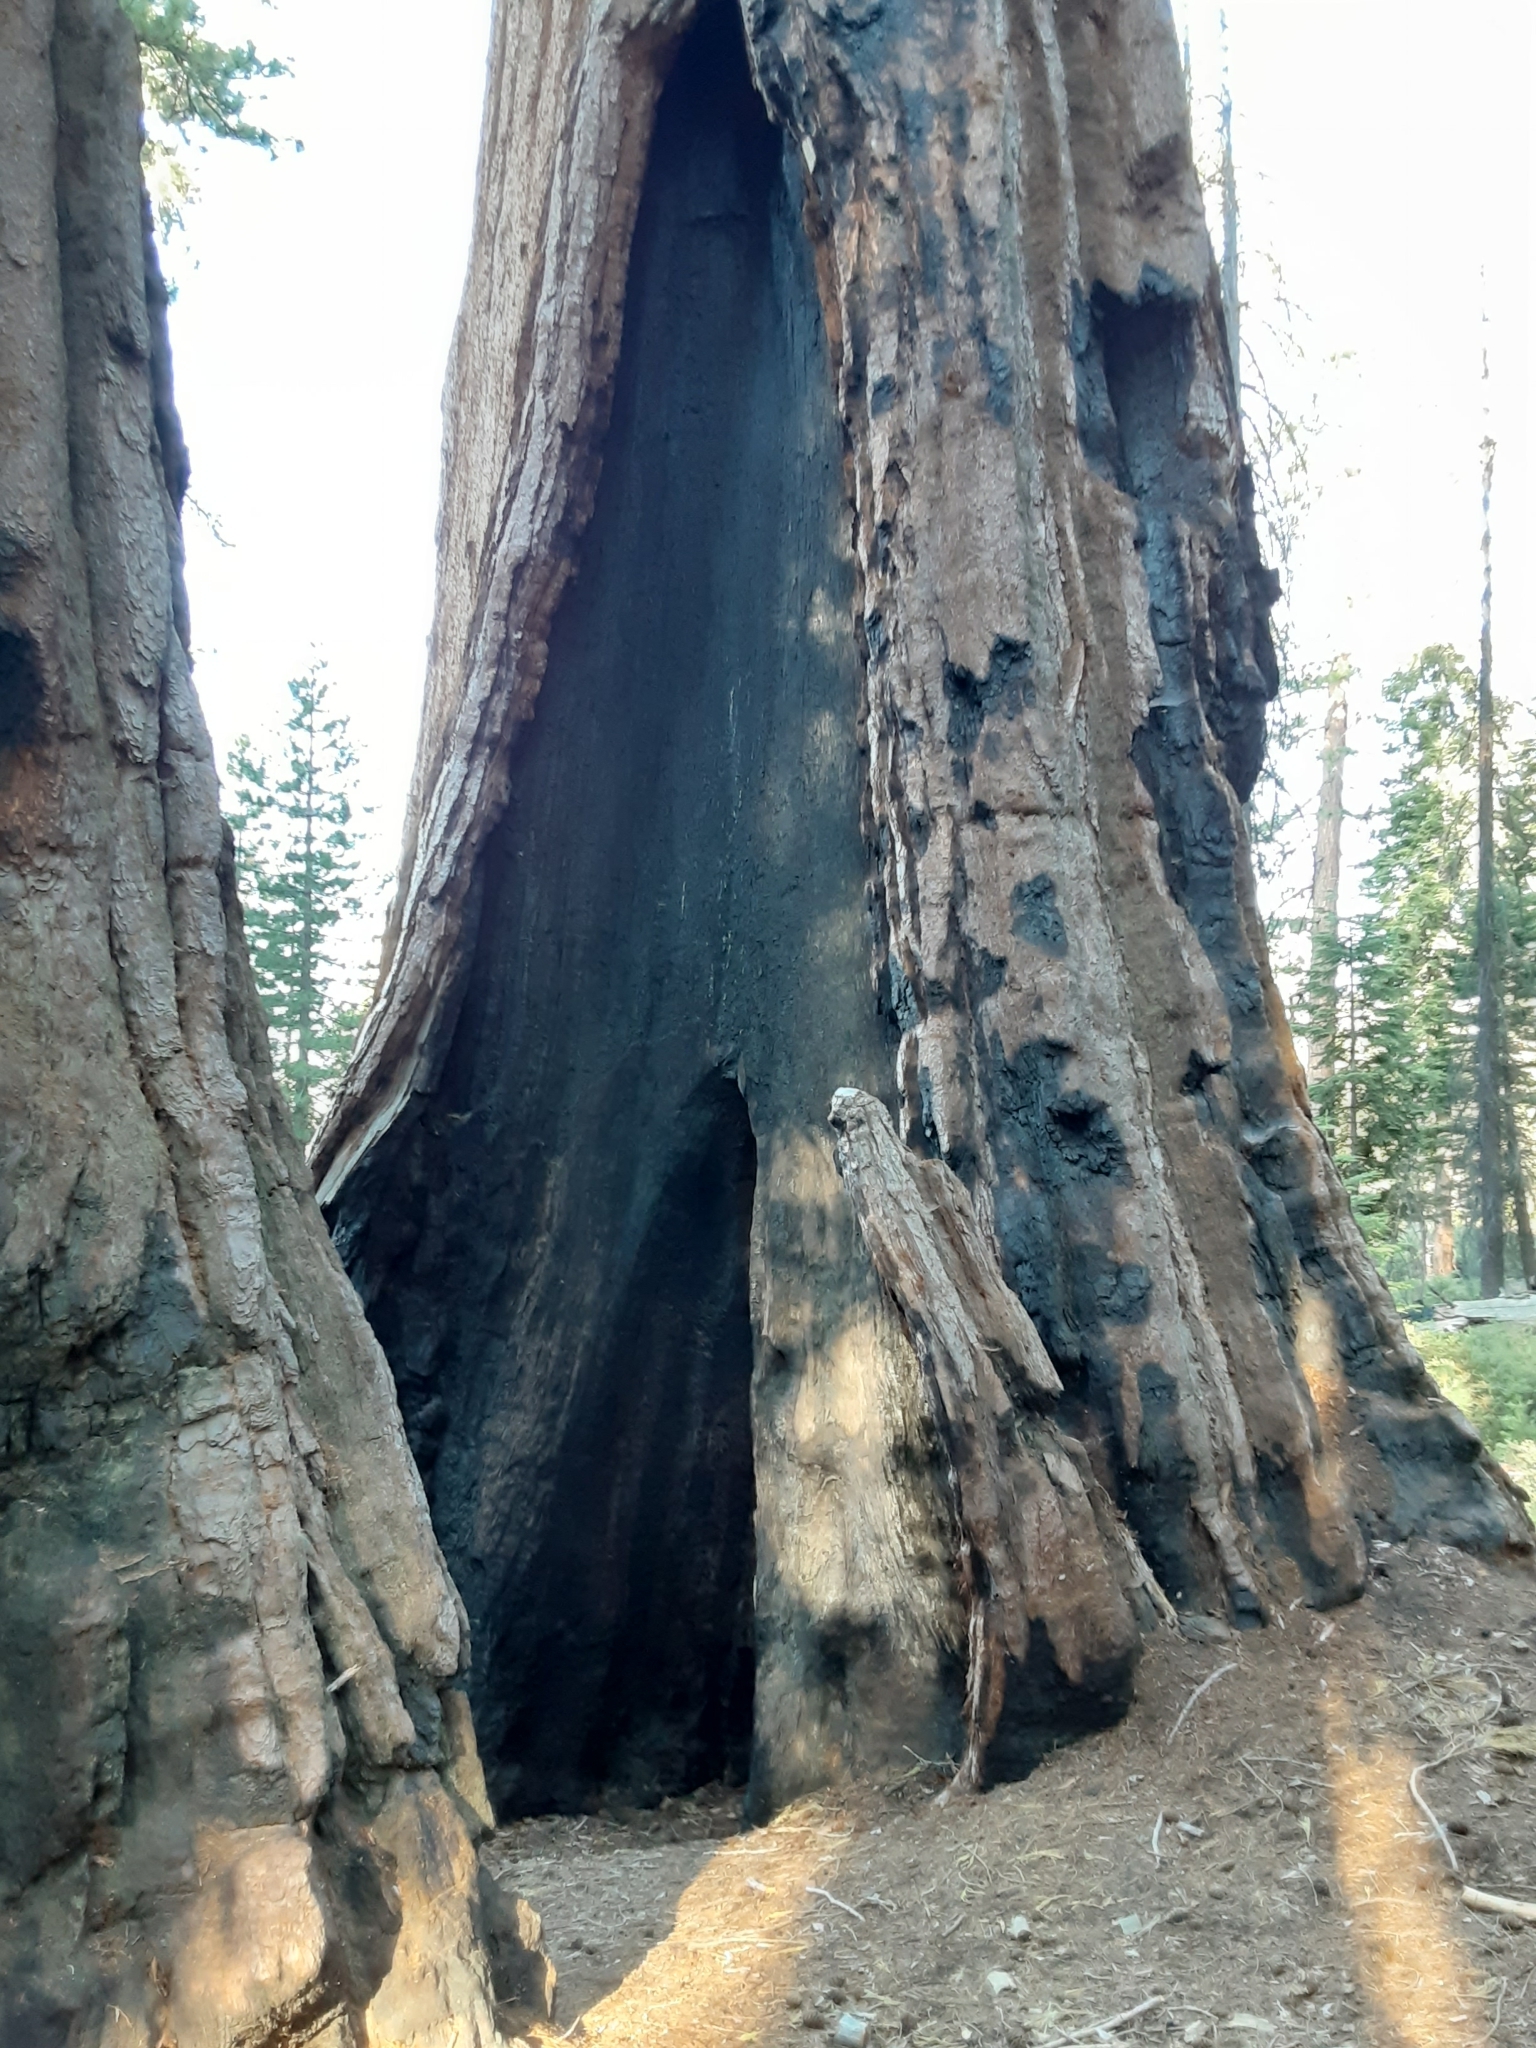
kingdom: Plantae
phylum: Tracheophyta
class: Pinopsida
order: Pinales
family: Cupressaceae
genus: Sequoiadendron
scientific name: Sequoiadendron giganteum
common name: Wellingtonia
